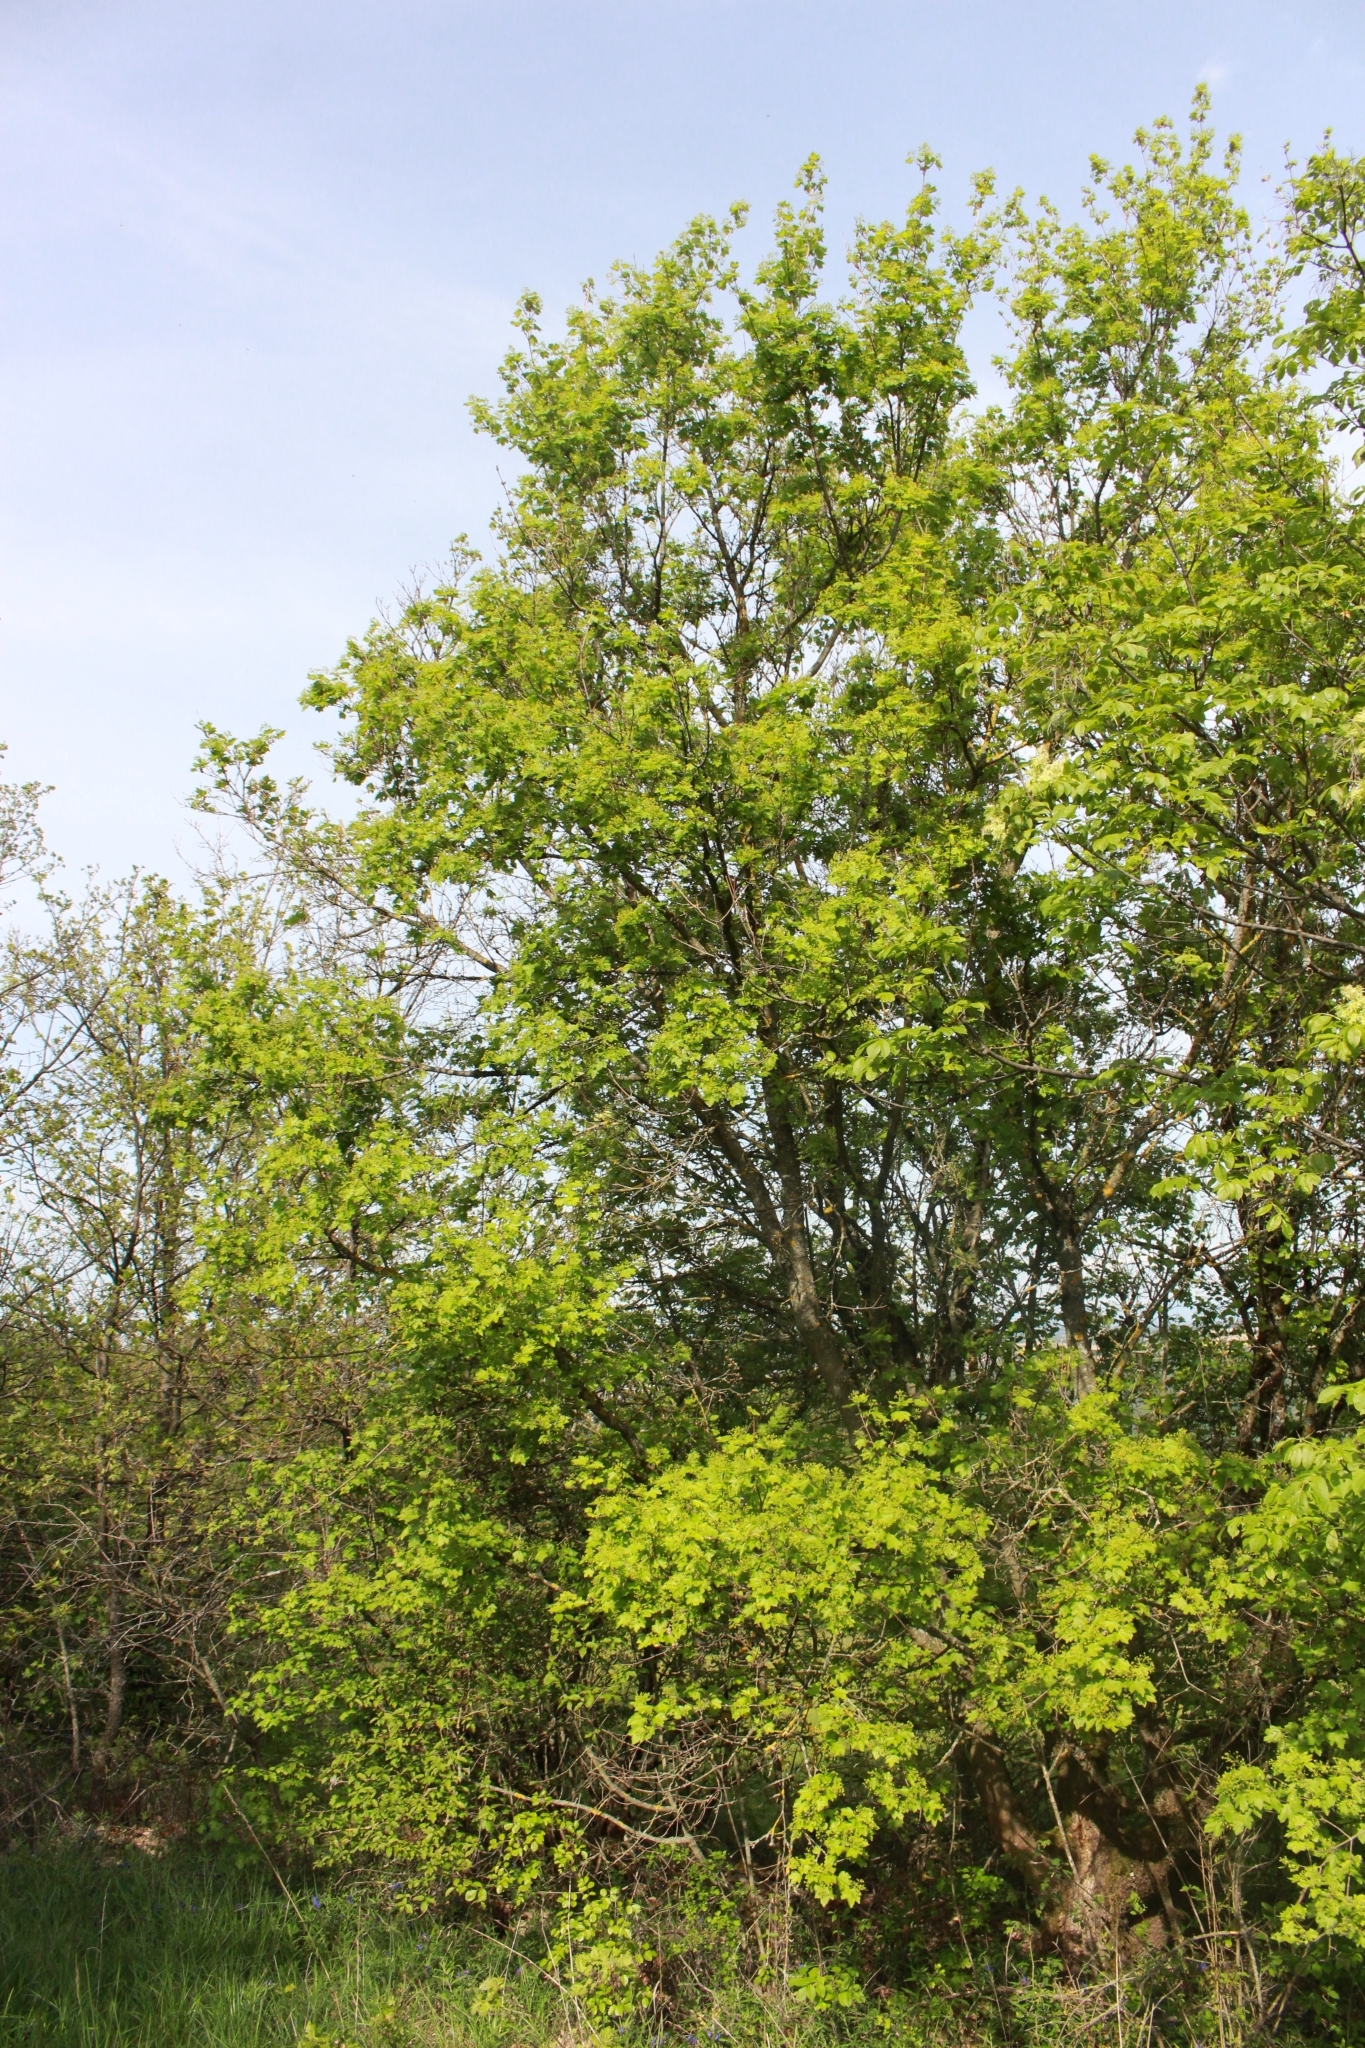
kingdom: Plantae
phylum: Tracheophyta
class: Magnoliopsida
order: Sapindales
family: Sapindaceae
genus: Acer
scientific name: Acer campestre
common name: Field maple
